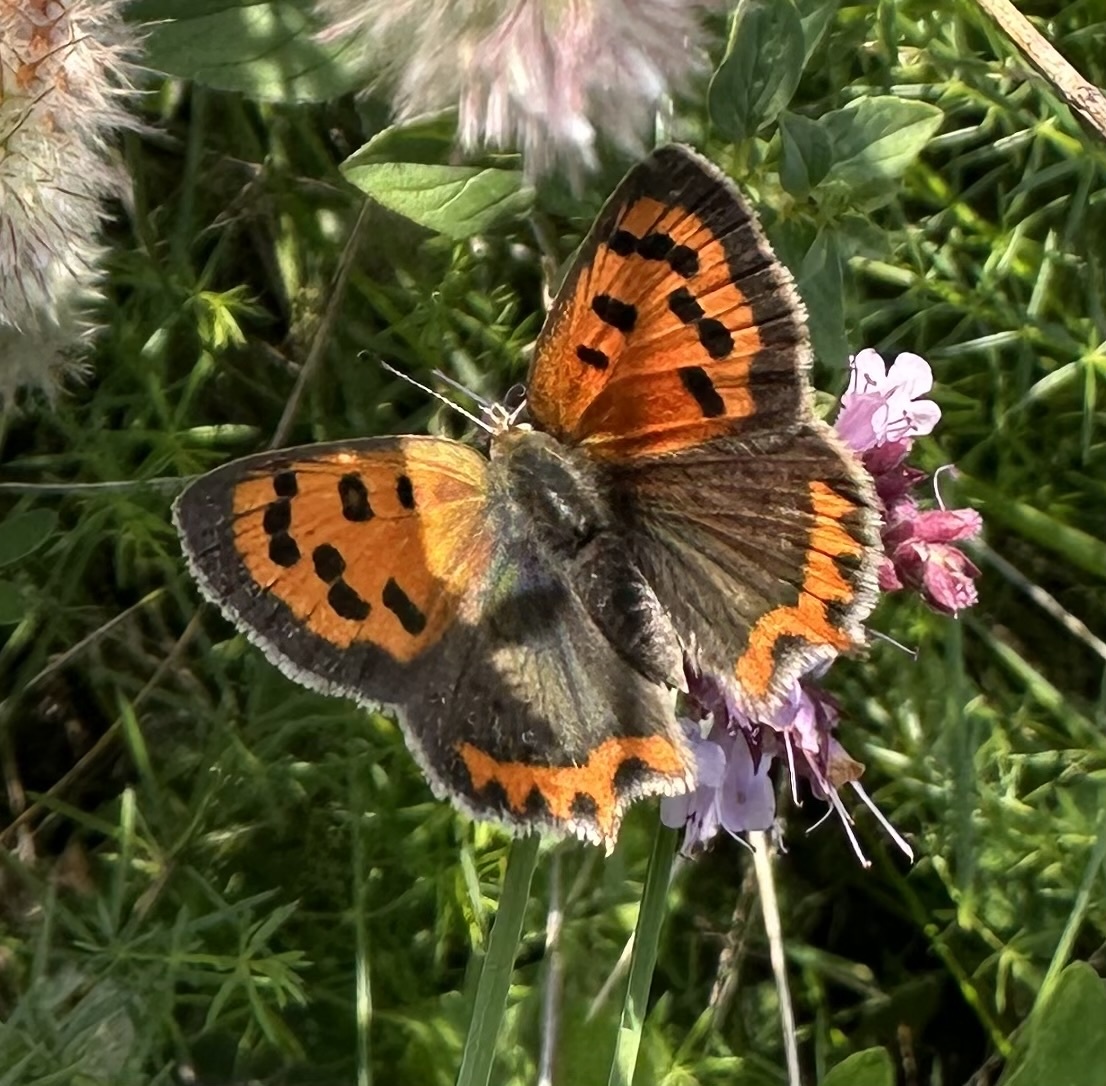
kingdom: Animalia
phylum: Arthropoda
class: Insecta
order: Lepidoptera
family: Lycaenidae
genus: Lycaena
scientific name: Lycaena phlaeas
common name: Small copper
